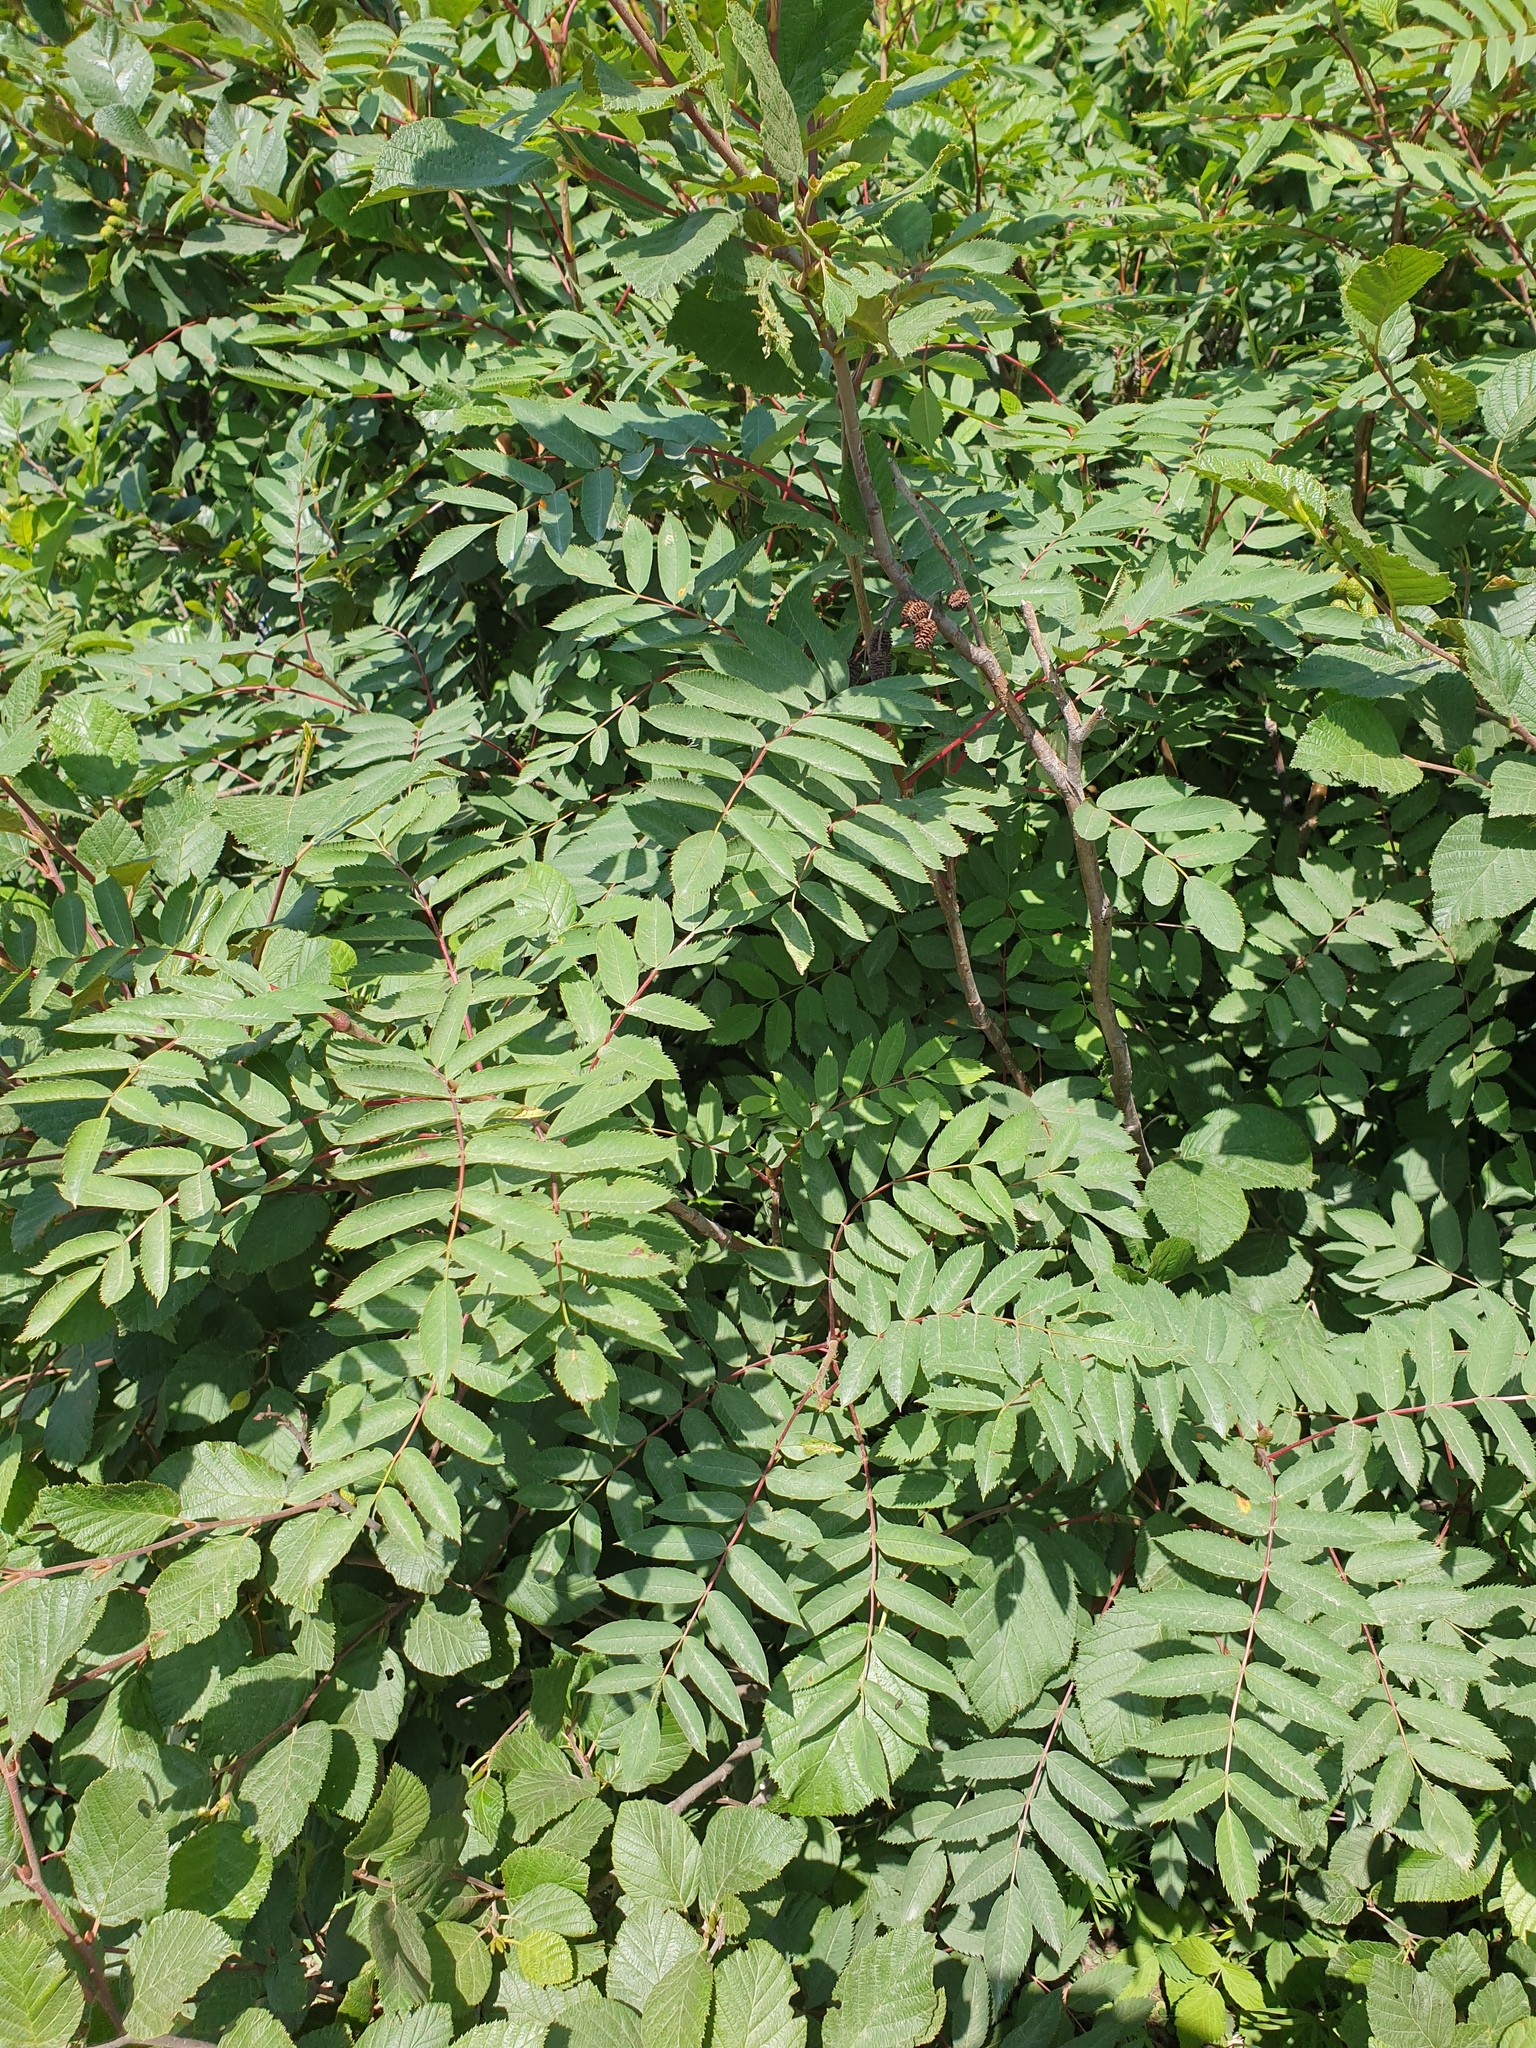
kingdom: Plantae
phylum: Tracheophyta
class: Magnoliopsida
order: Rosales
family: Rosaceae
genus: Sorbus
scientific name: Sorbus decora
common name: Northern mountain-ash
